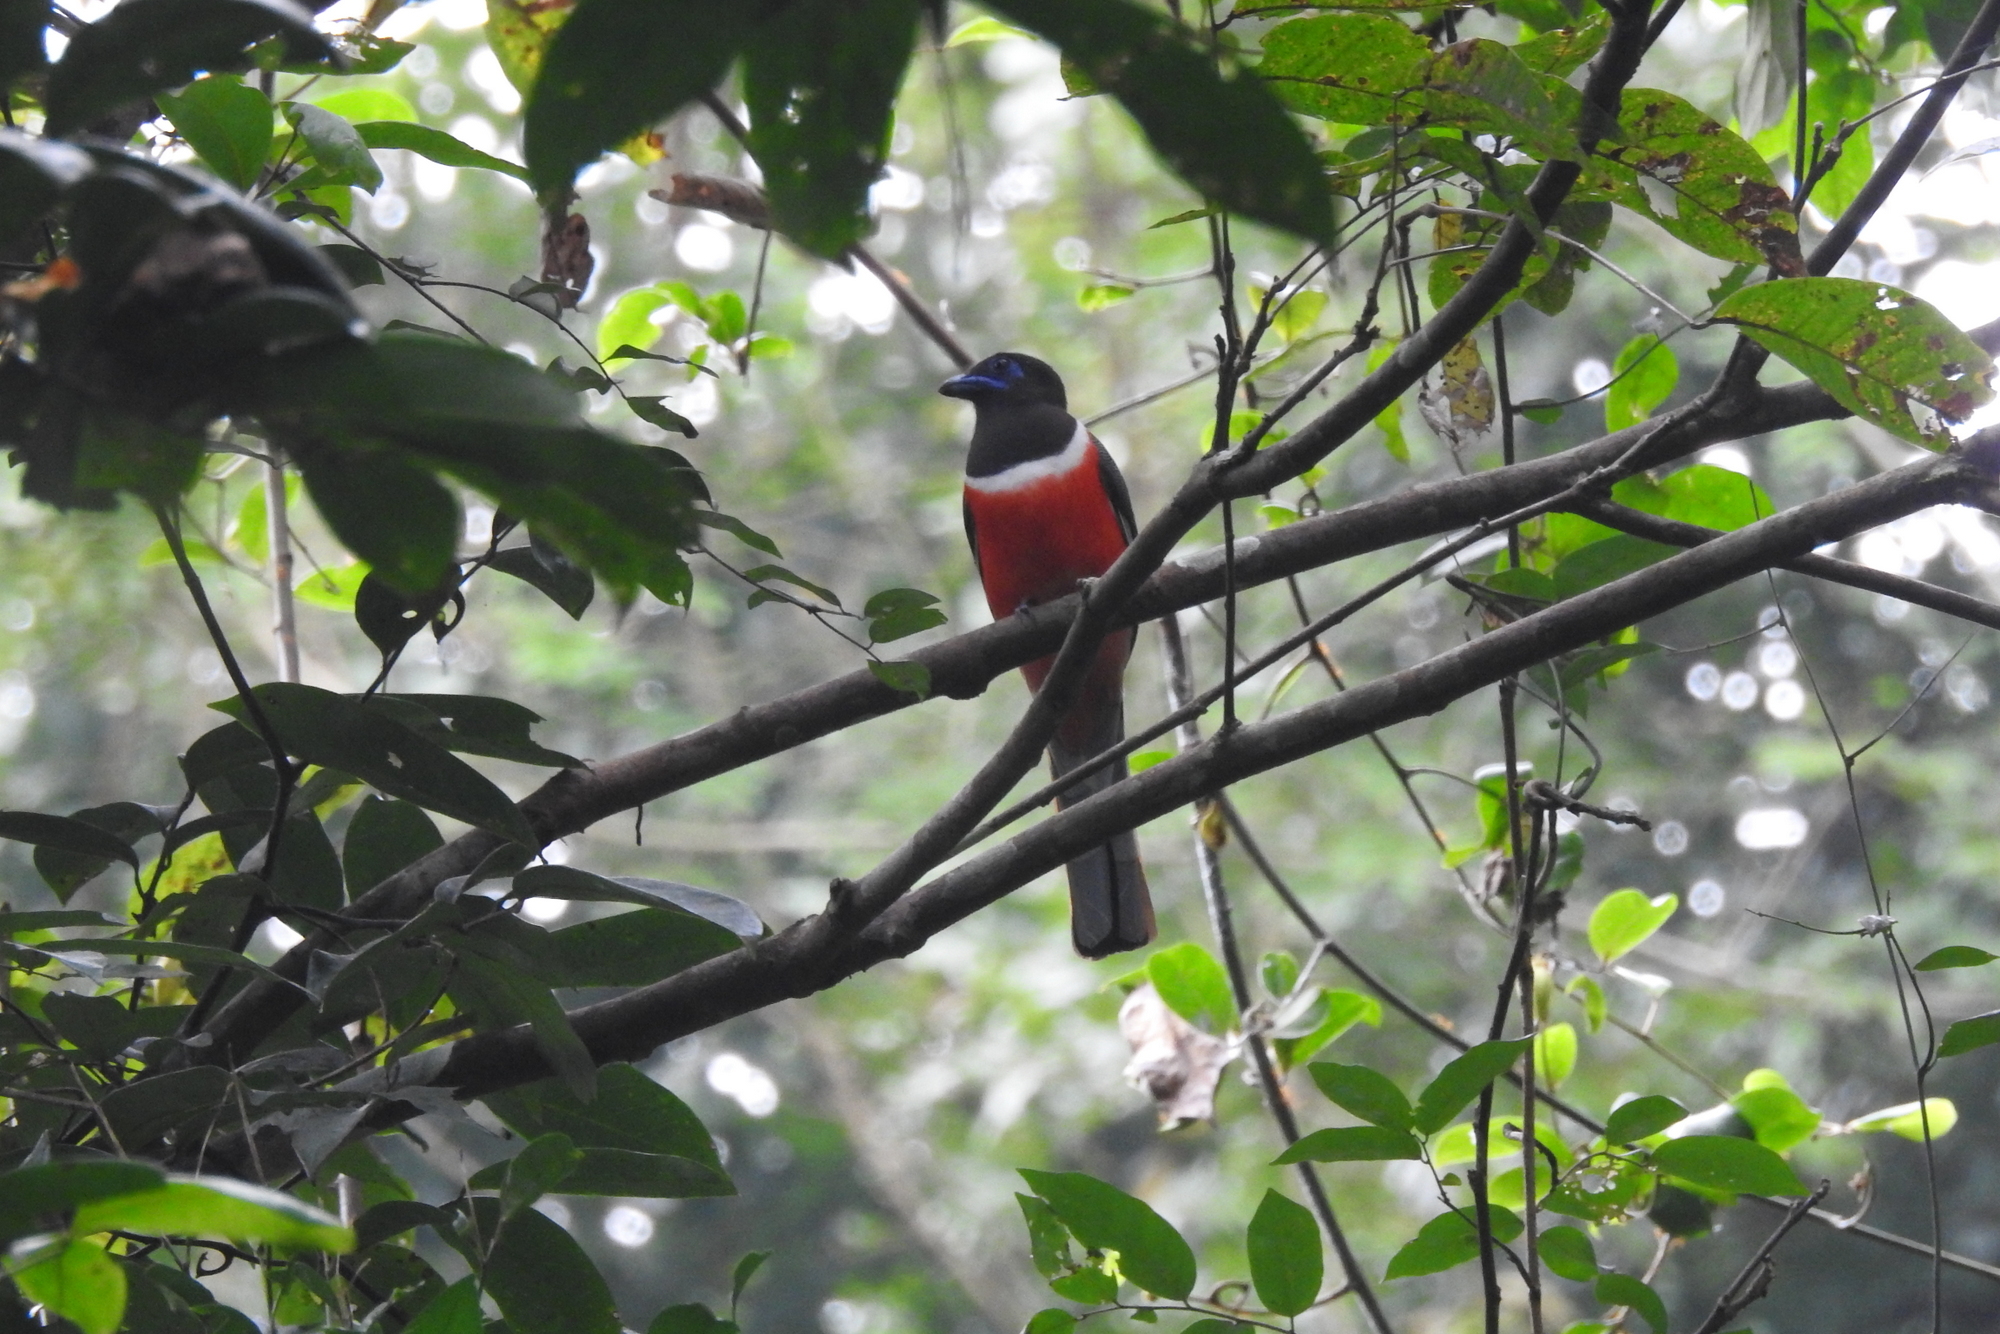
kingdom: Animalia
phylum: Chordata
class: Aves
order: Trogoniformes
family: Trogonidae
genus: Harpactes
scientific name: Harpactes fasciatus
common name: Malabar trogon
